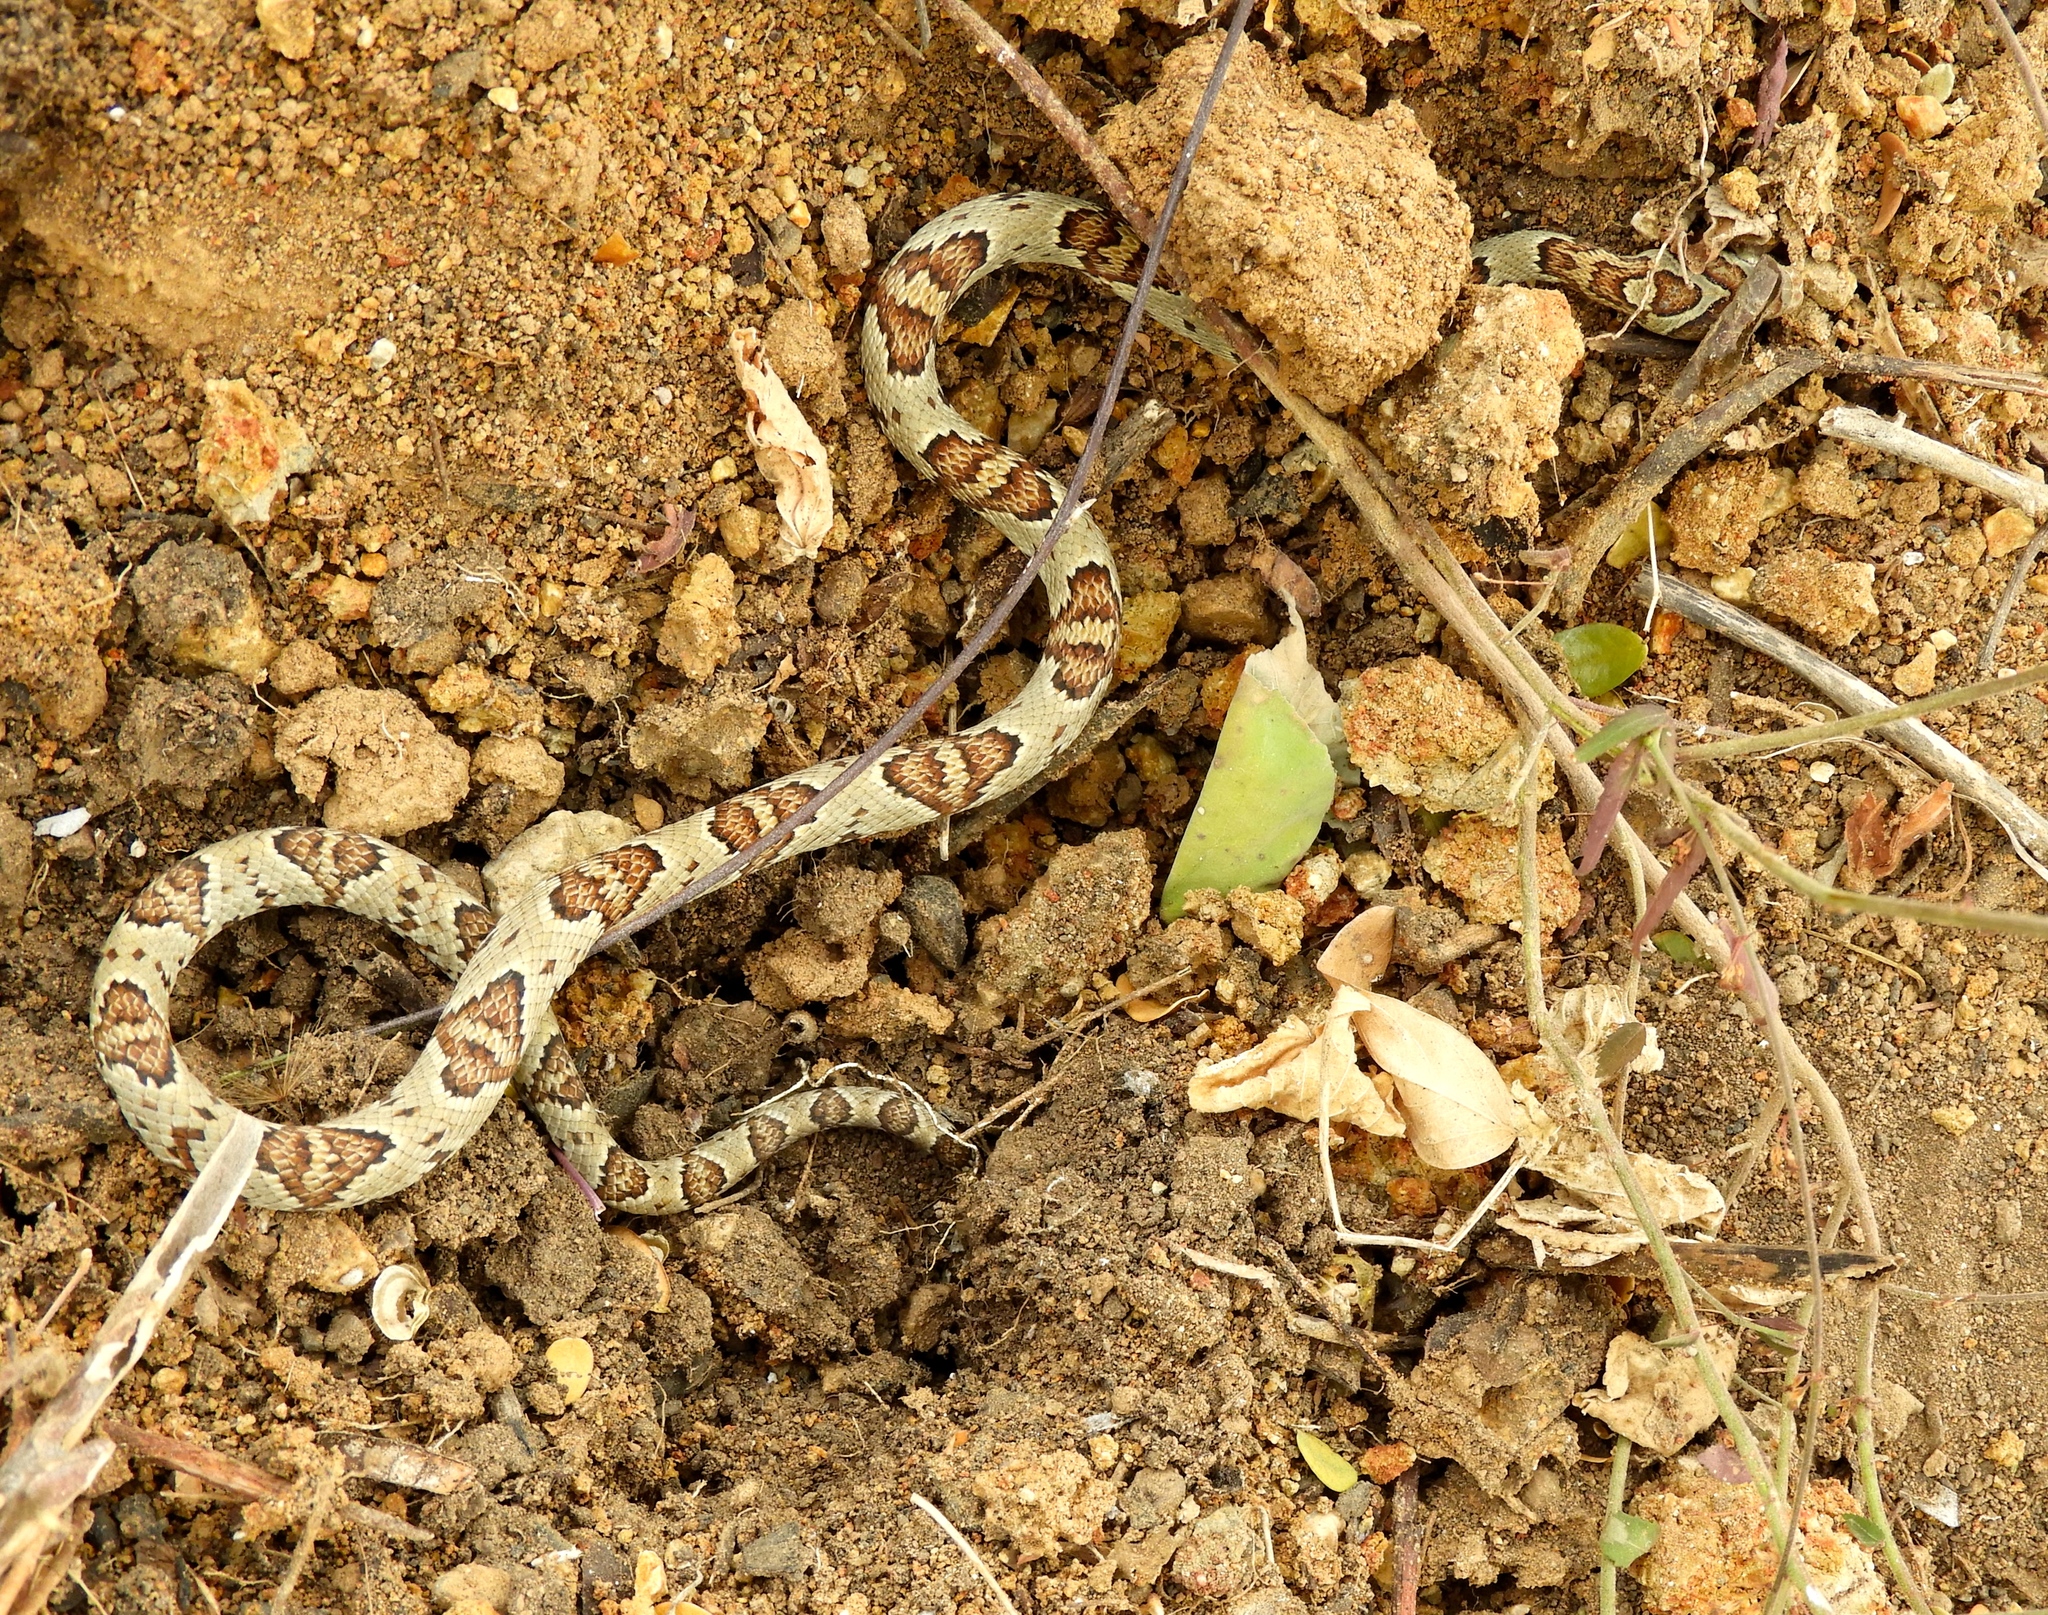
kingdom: Animalia
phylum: Chordata
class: Squamata
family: Colubridae
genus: Trimorphodon
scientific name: Trimorphodon paucimaculatus
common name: Sinaloan lyresnake
